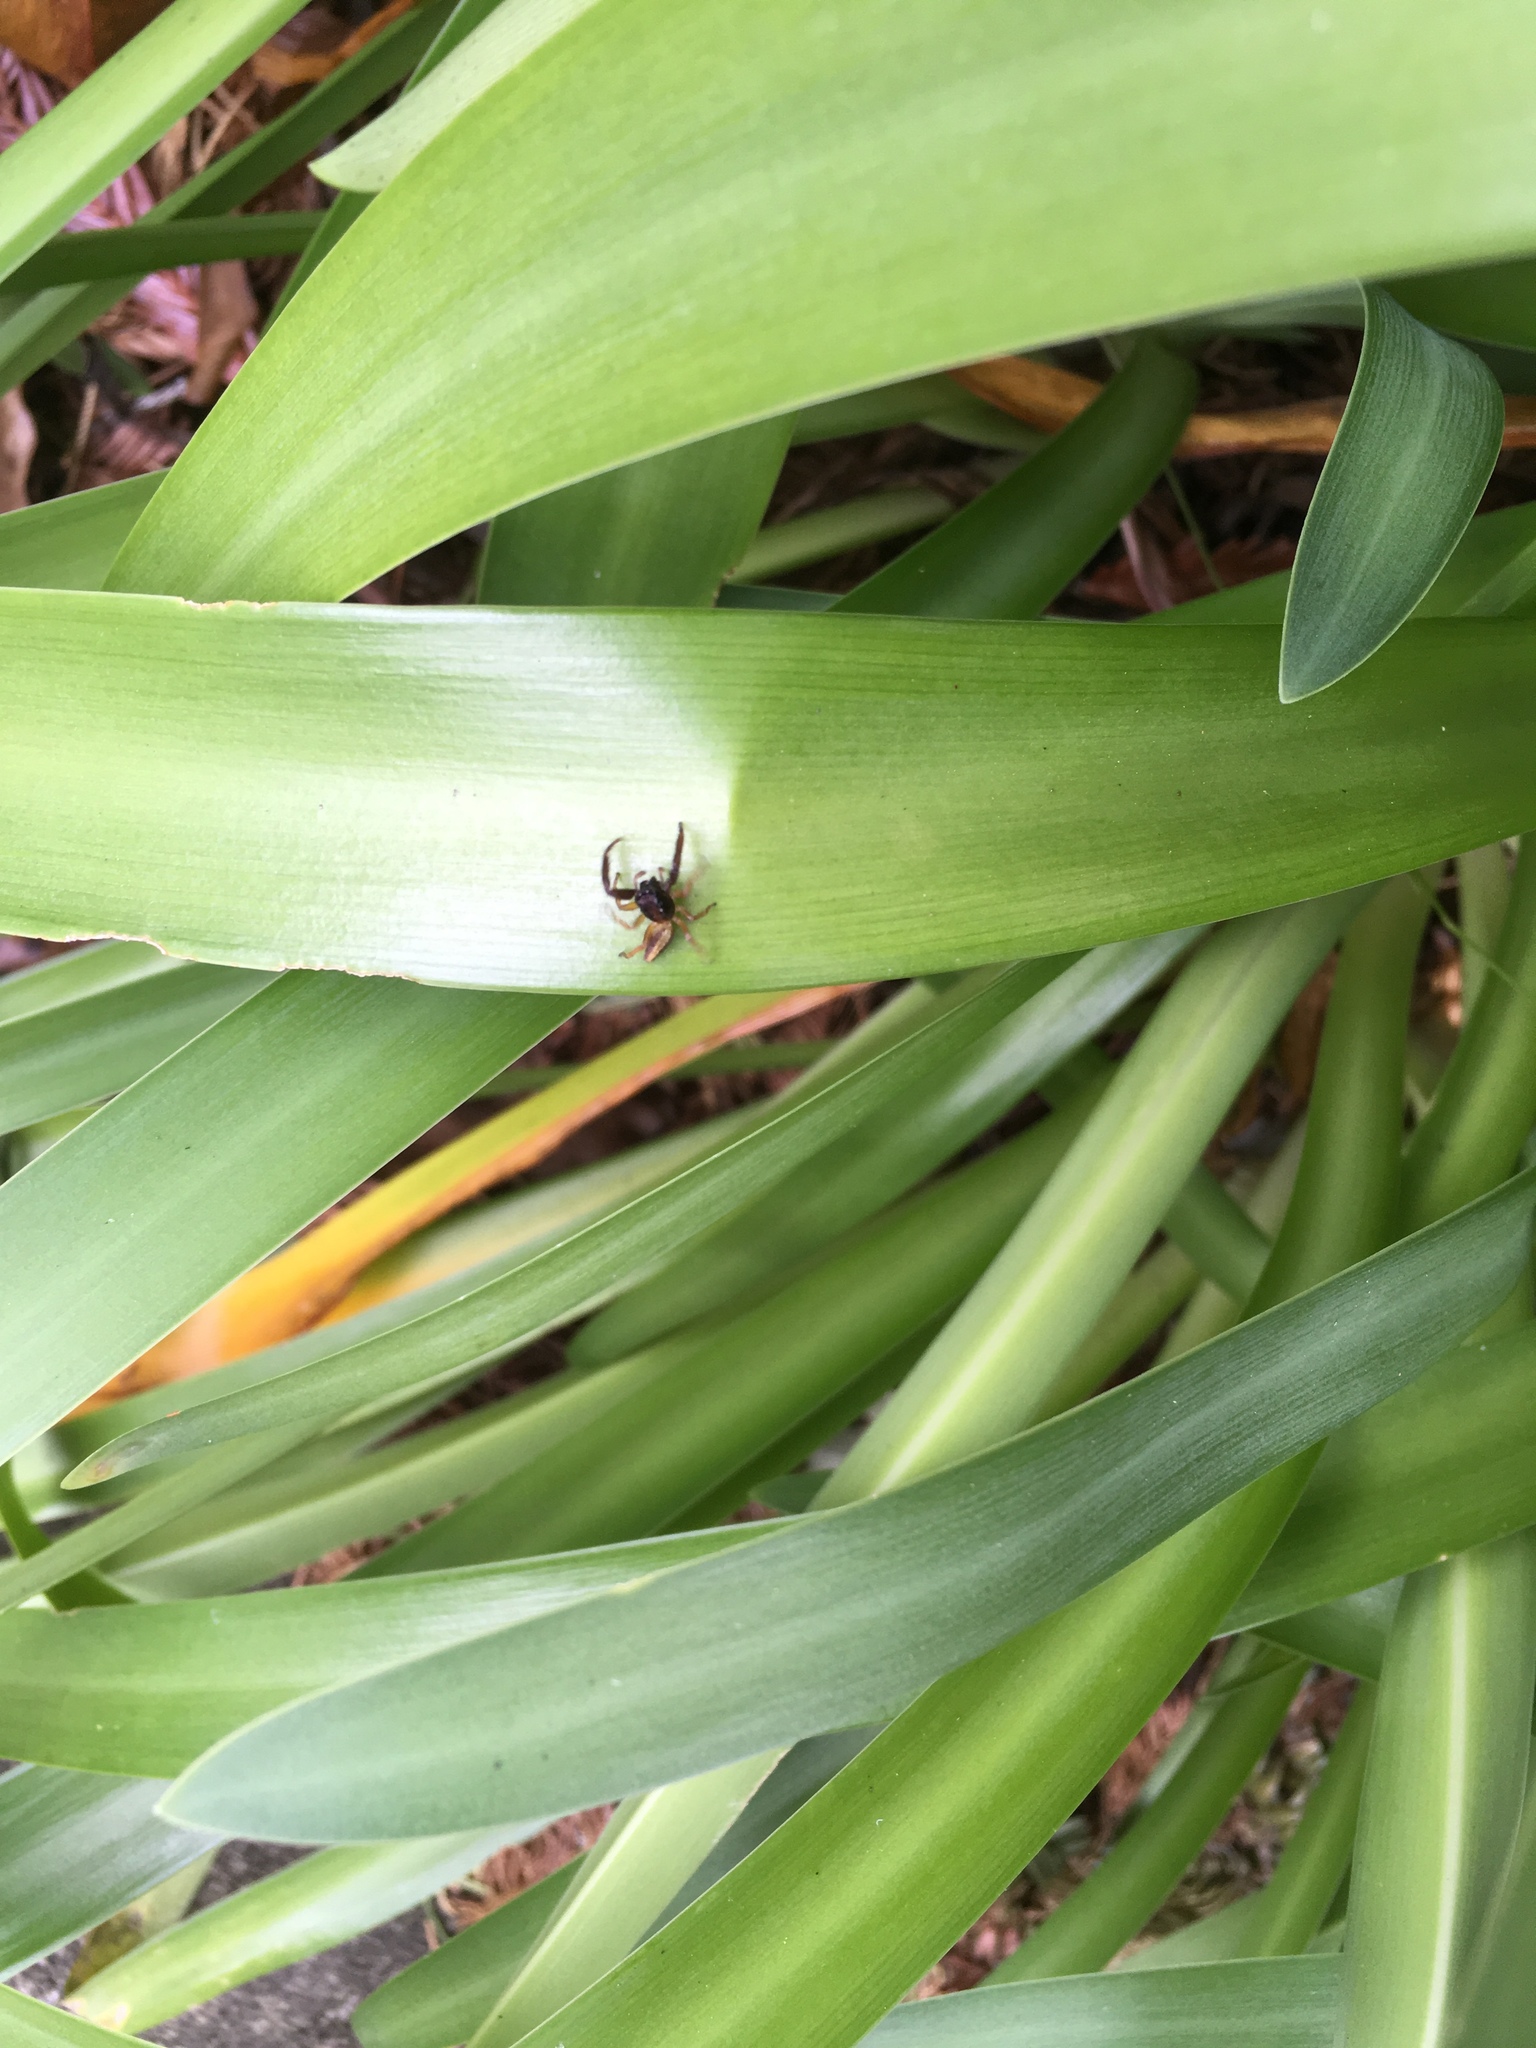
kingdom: Animalia
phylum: Arthropoda
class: Arachnida
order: Araneae
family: Salticidae
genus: Trite
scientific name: Trite planiceps
